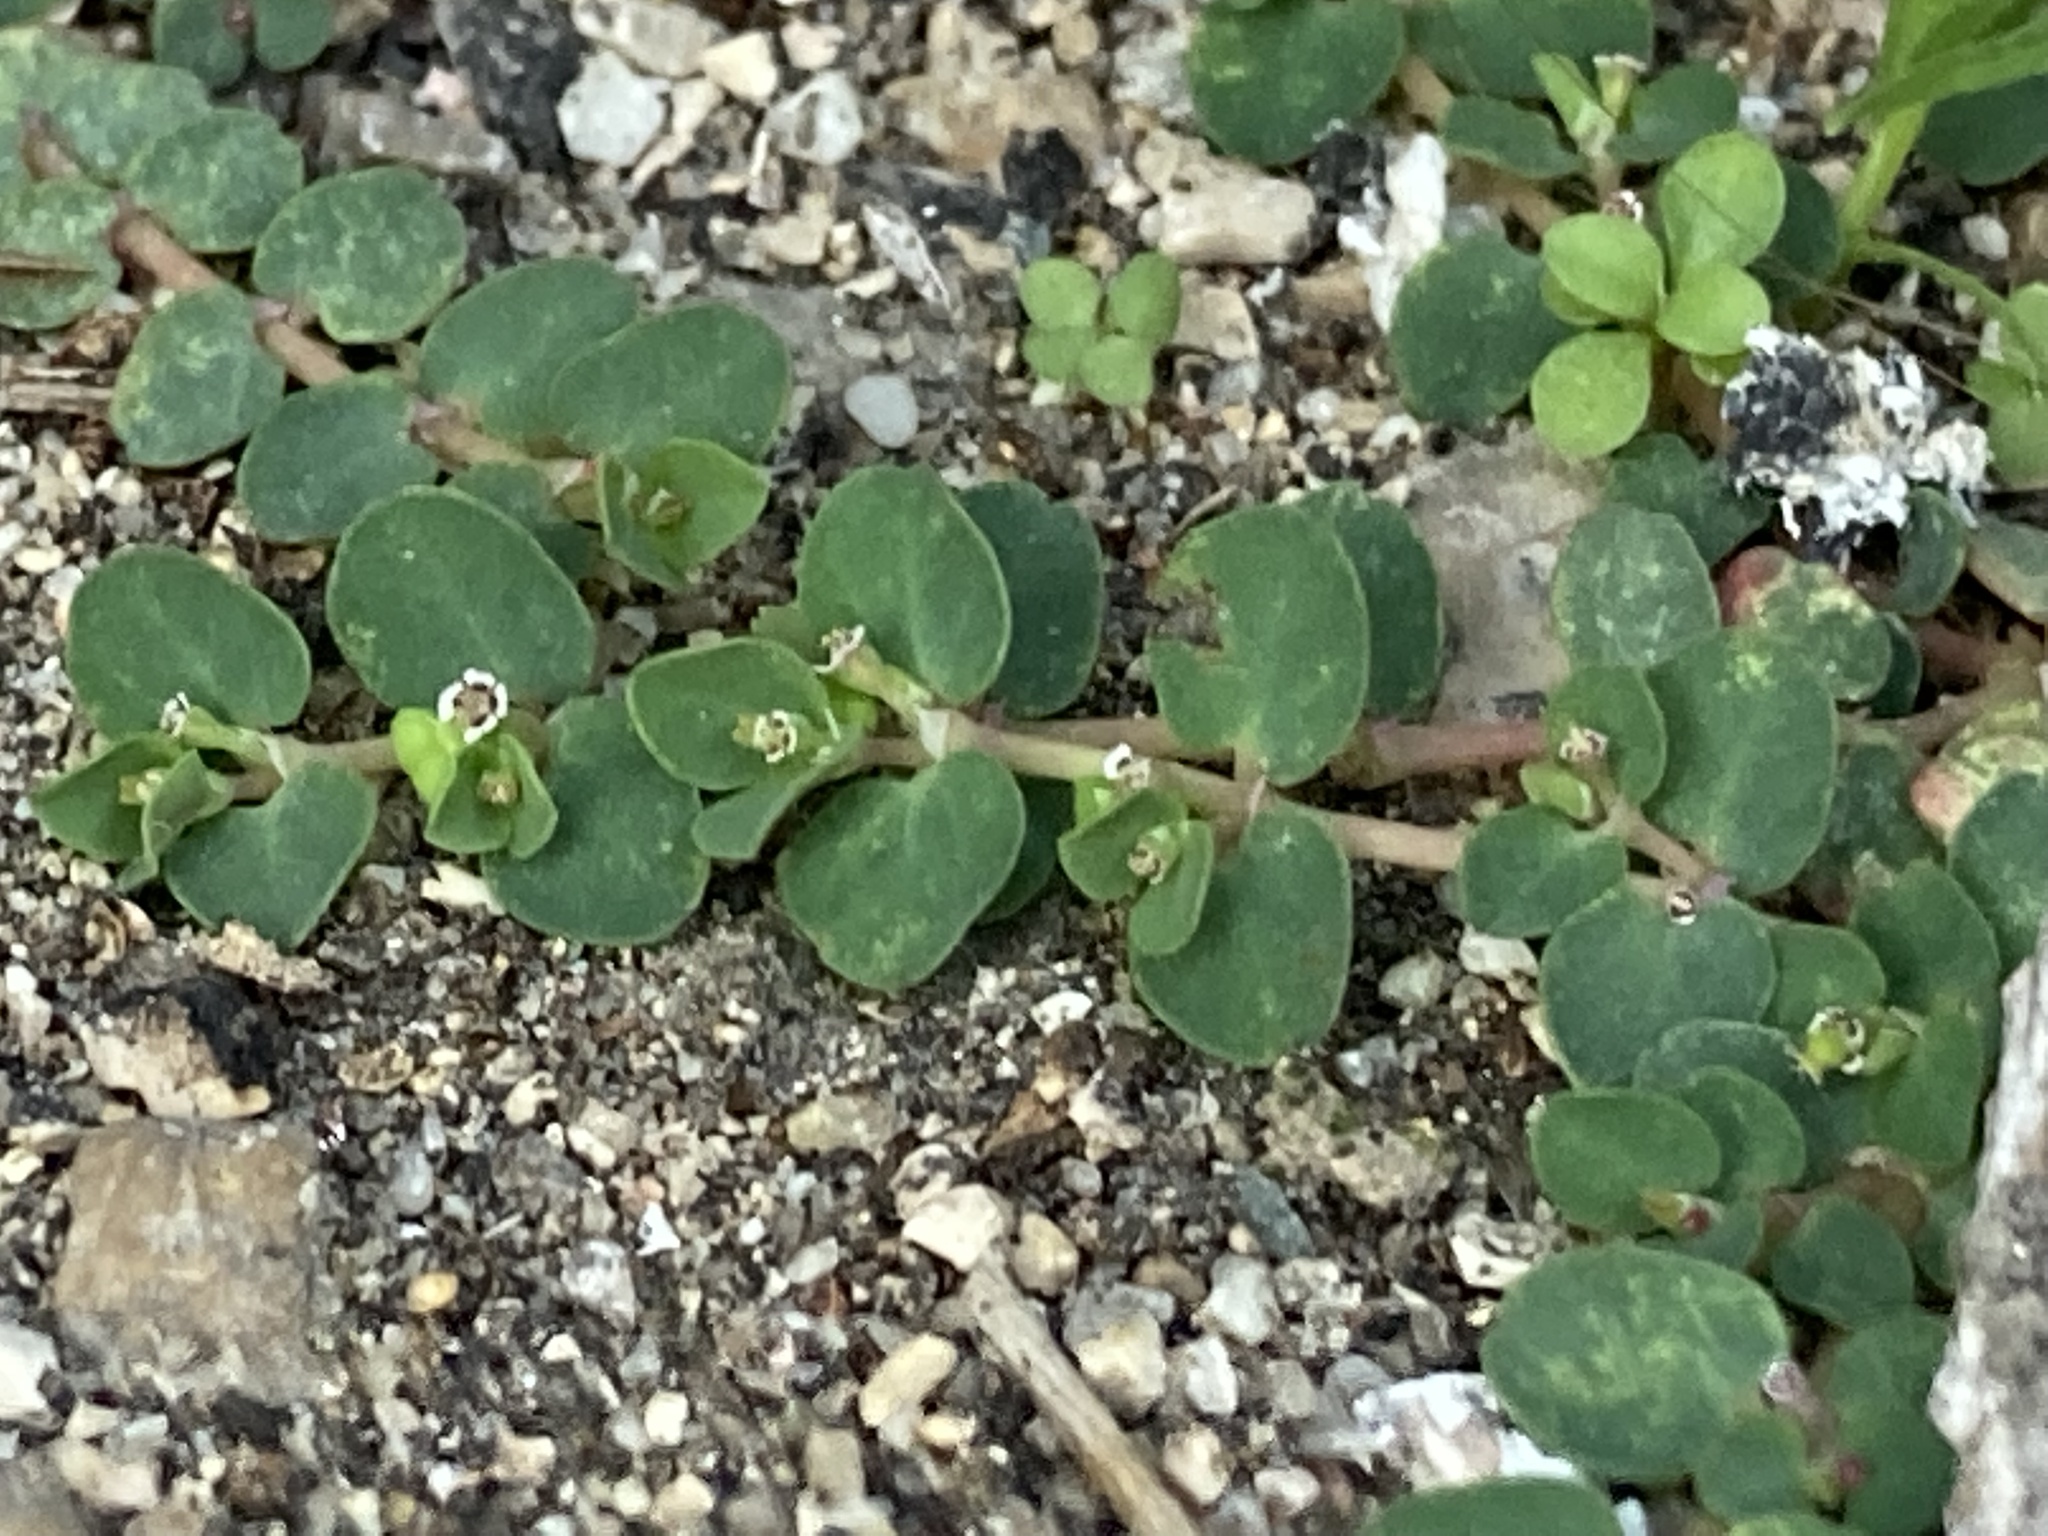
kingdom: Plantae
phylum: Tracheophyta
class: Magnoliopsida
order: Malpighiales
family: Euphorbiaceae
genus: Euphorbia
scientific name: Euphorbia serpens
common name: Matted sandmat
